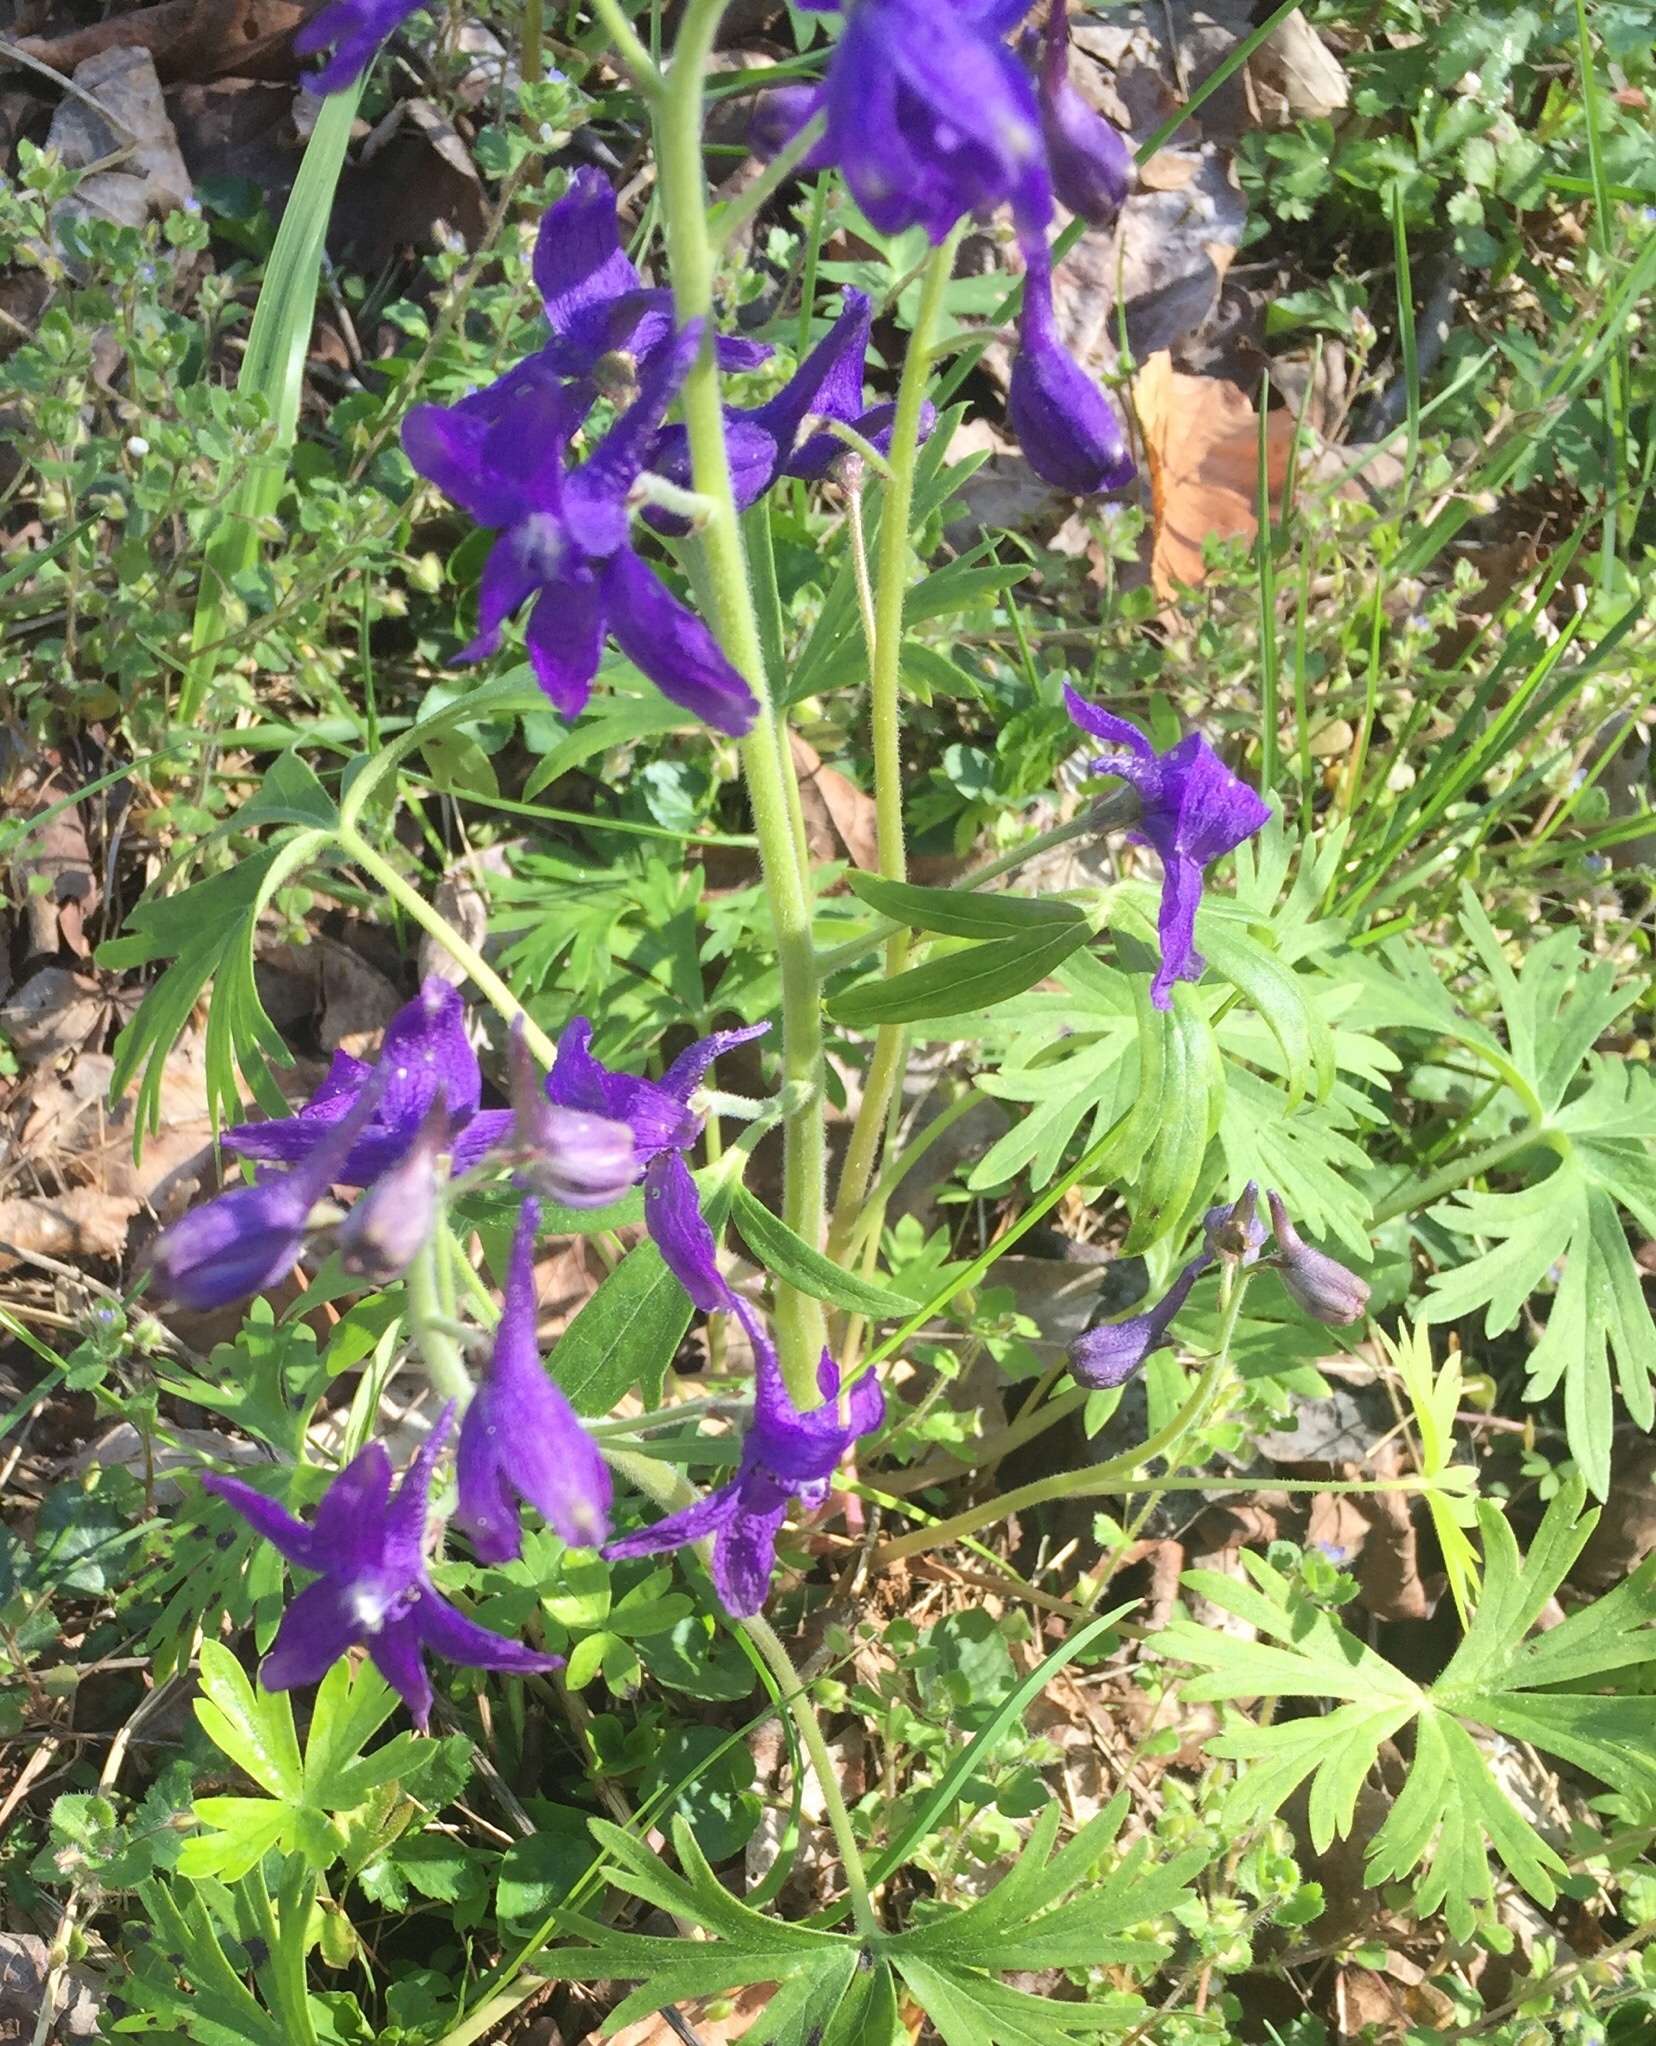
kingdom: Plantae
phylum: Tracheophyta
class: Magnoliopsida
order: Ranunculales
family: Ranunculaceae
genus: Delphinium
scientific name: Delphinium tricorne
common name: Dwarf larkspur
